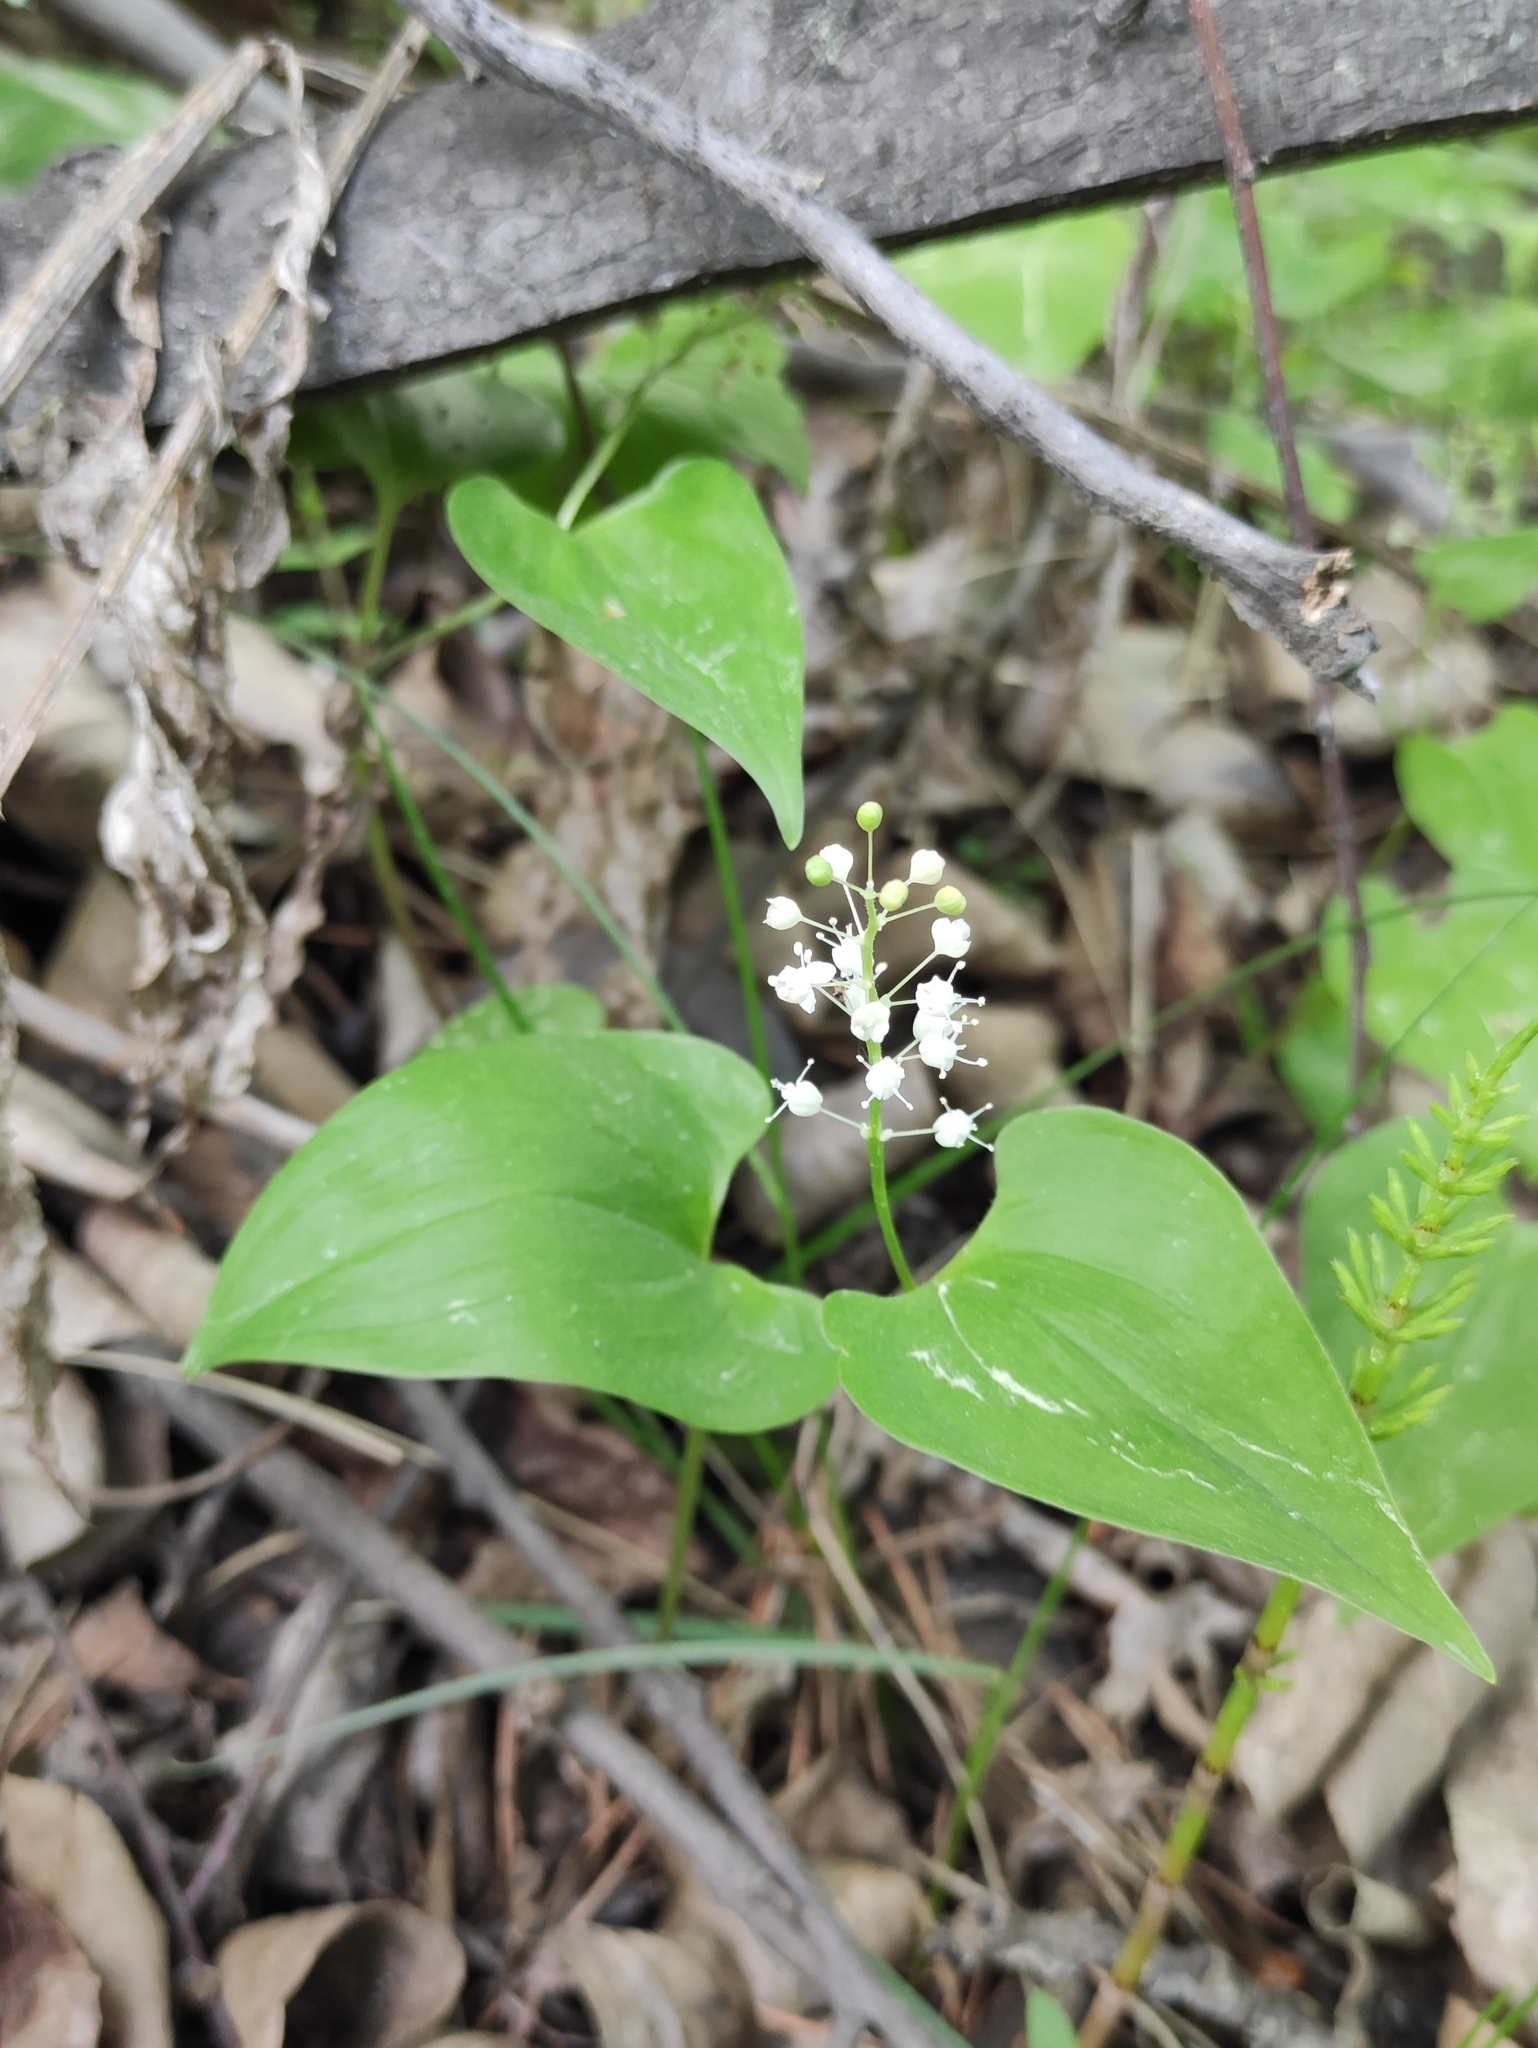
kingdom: Plantae
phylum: Tracheophyta
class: Liliopsida
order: Asparagales
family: Asparagaceae
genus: Maianthemum
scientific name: Maianthemum bifolium
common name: May lily
